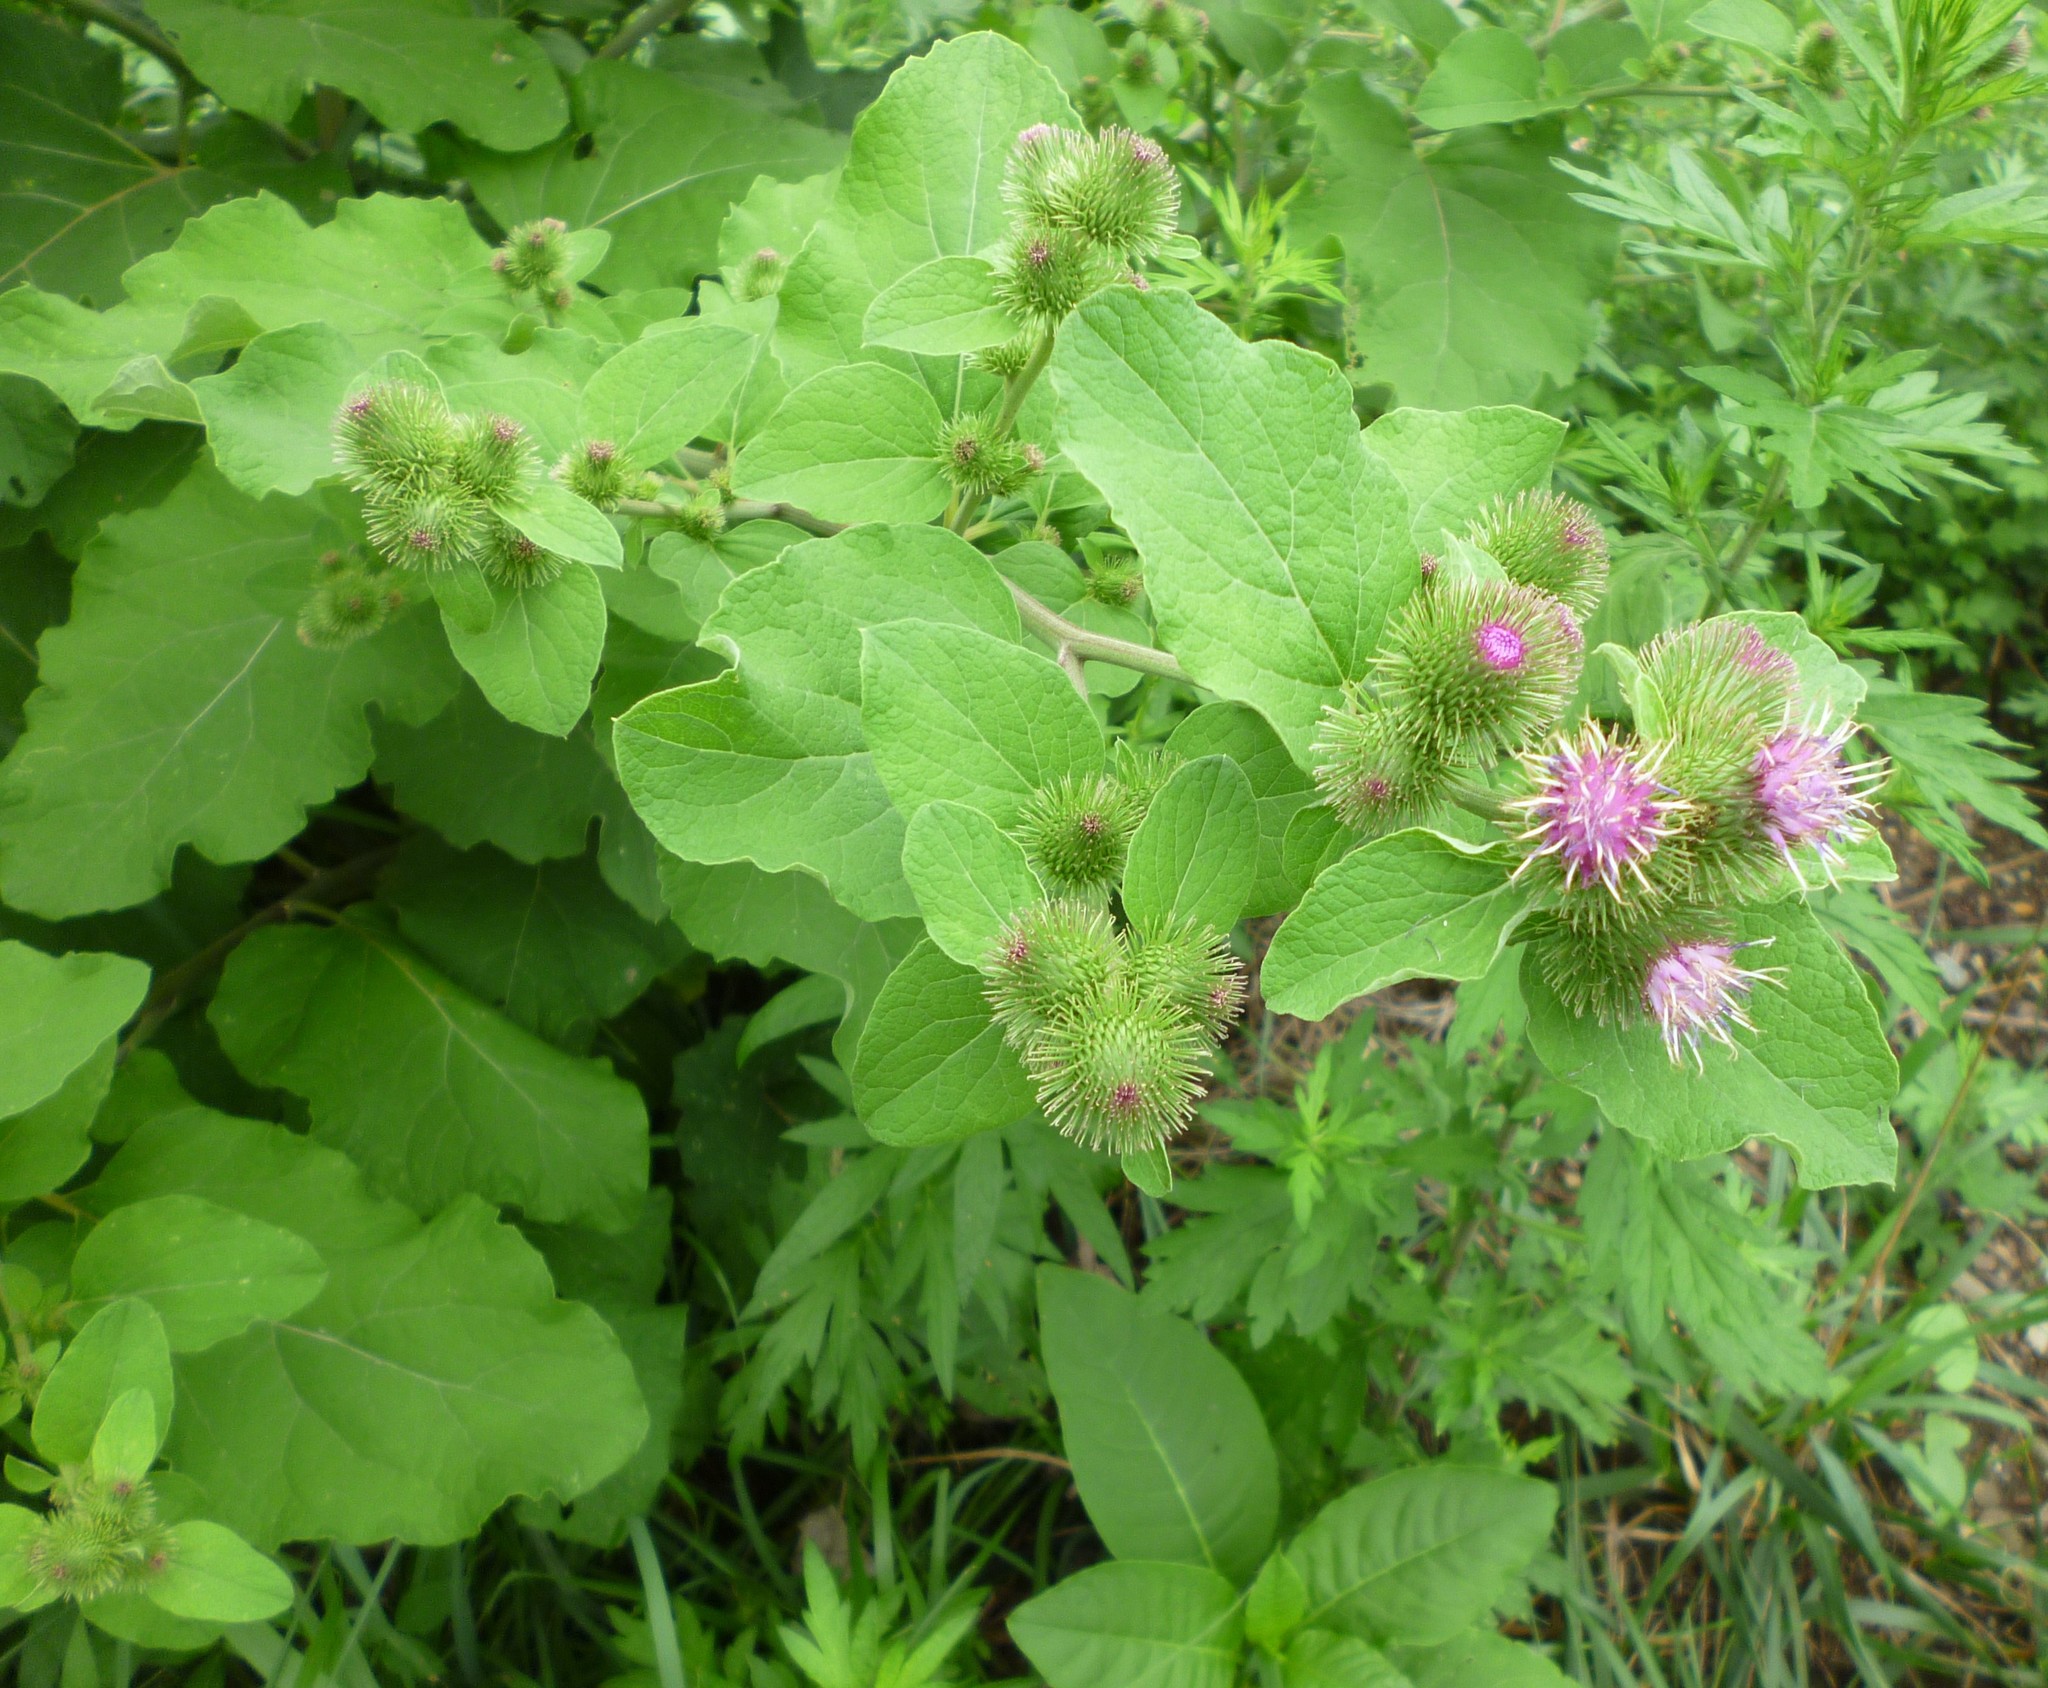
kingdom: Plantae
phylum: Tracheophyta
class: Magnoliopsida
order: Asterales
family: Asteraceae
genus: Arctium
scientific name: Arctium minus
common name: Lesser burdock
